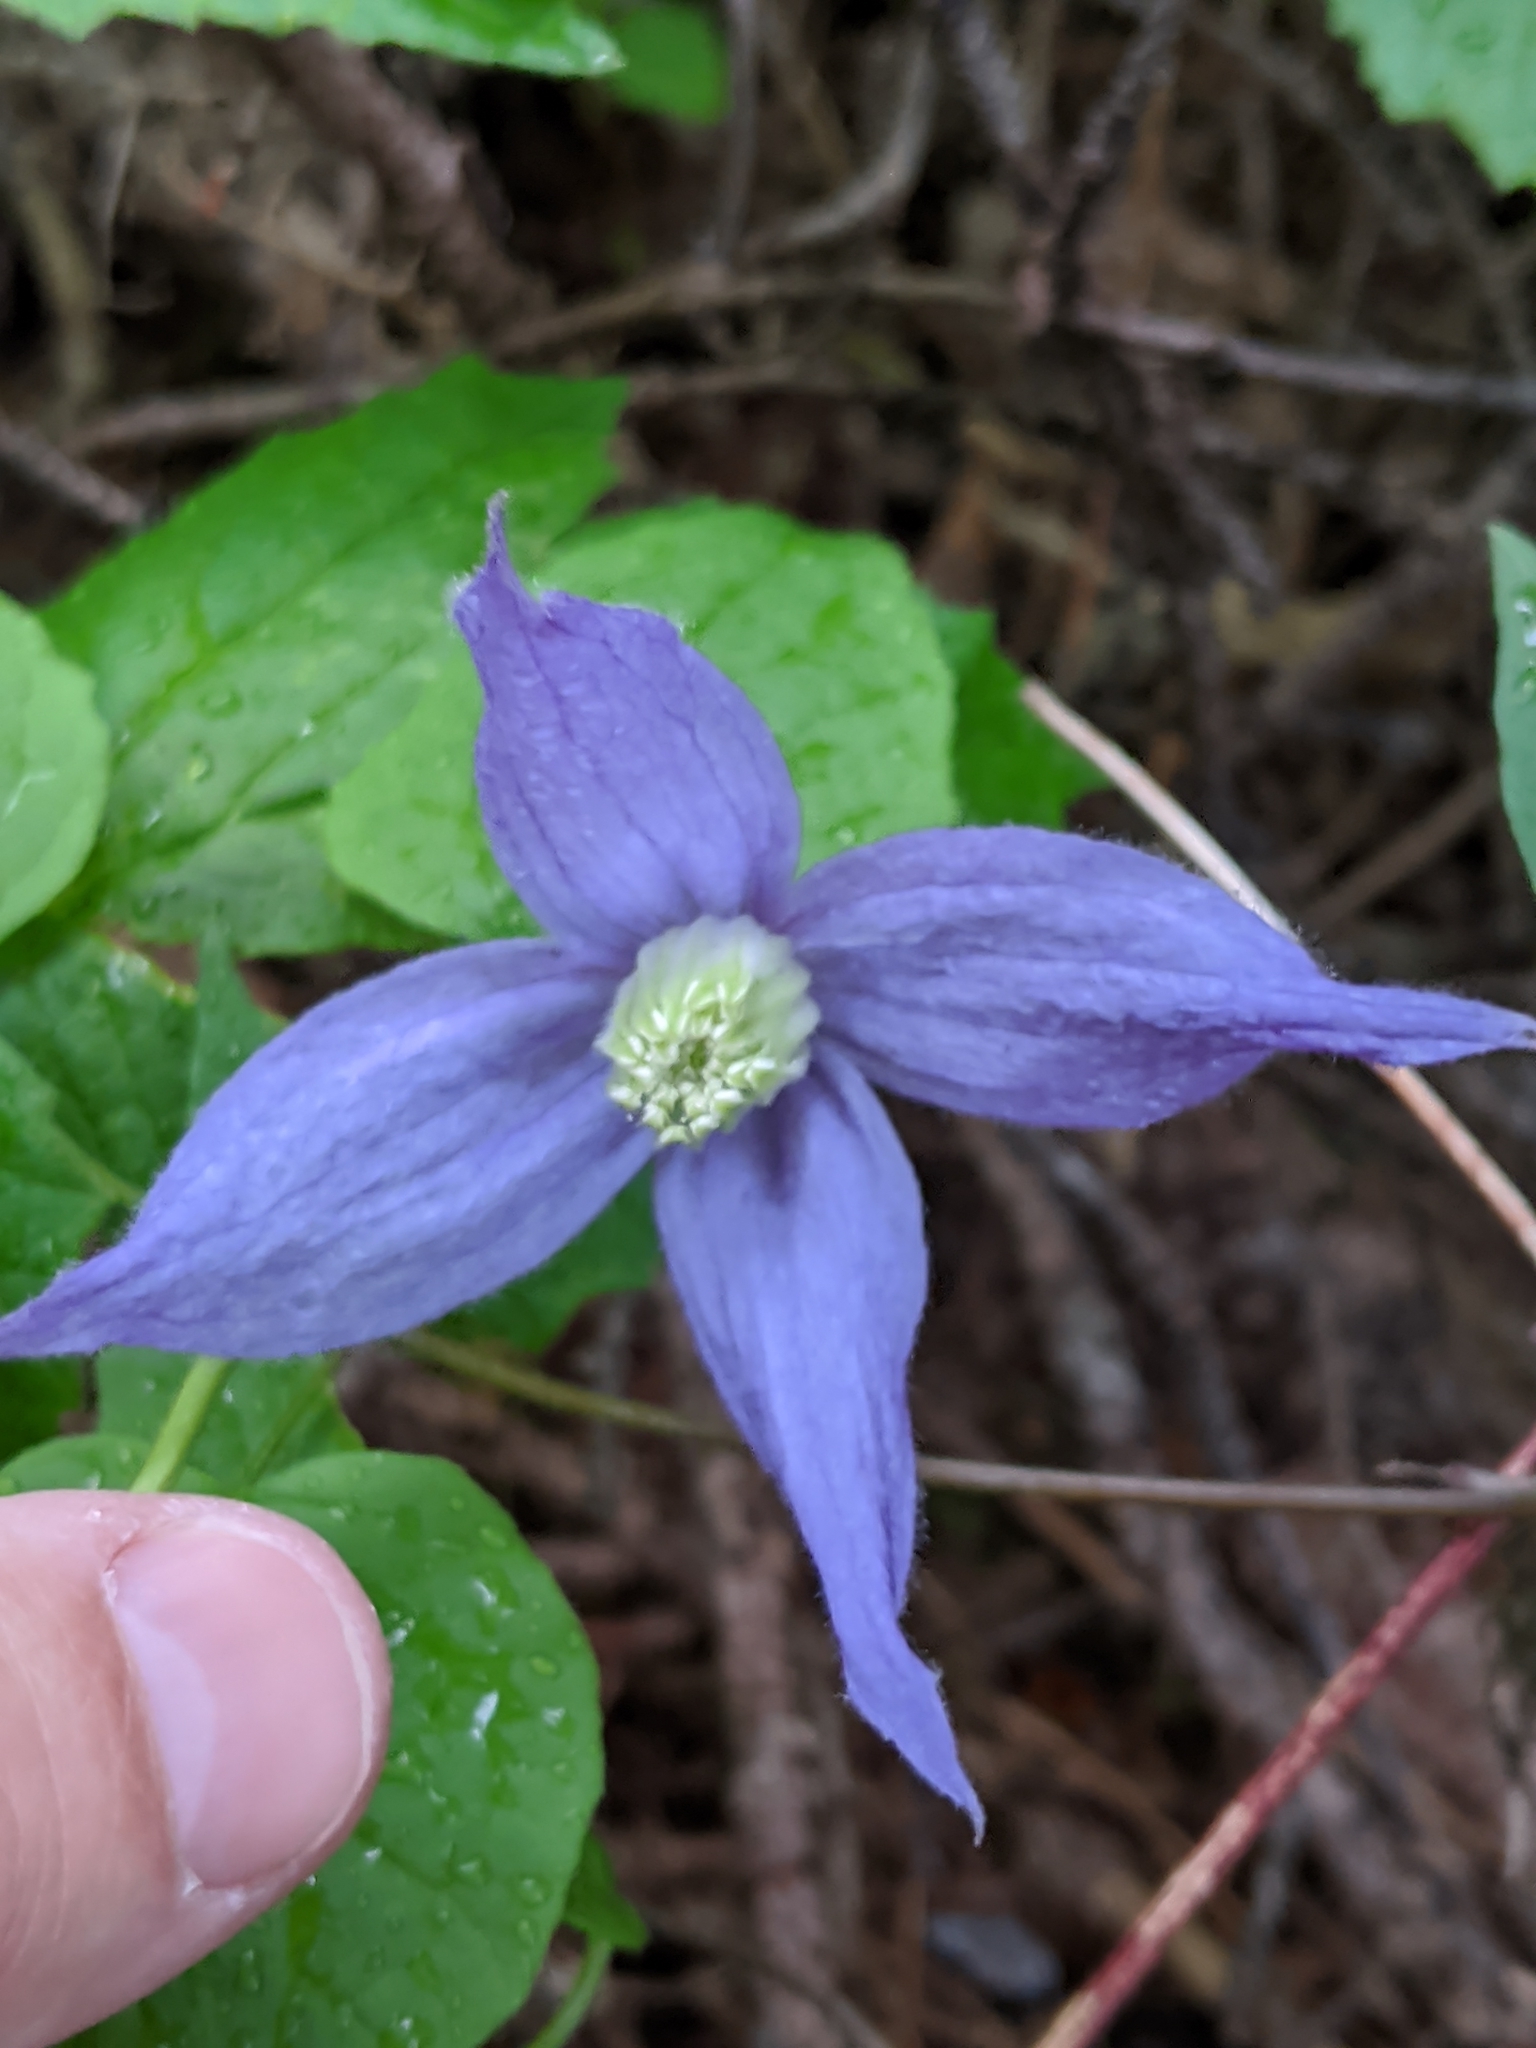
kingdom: Plantae
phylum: Tracheophyta
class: Magnoliopsida
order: Ranunculales
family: Ranunculaceae
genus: Clematis
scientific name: Clematis occidentalis
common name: Purple clematis
